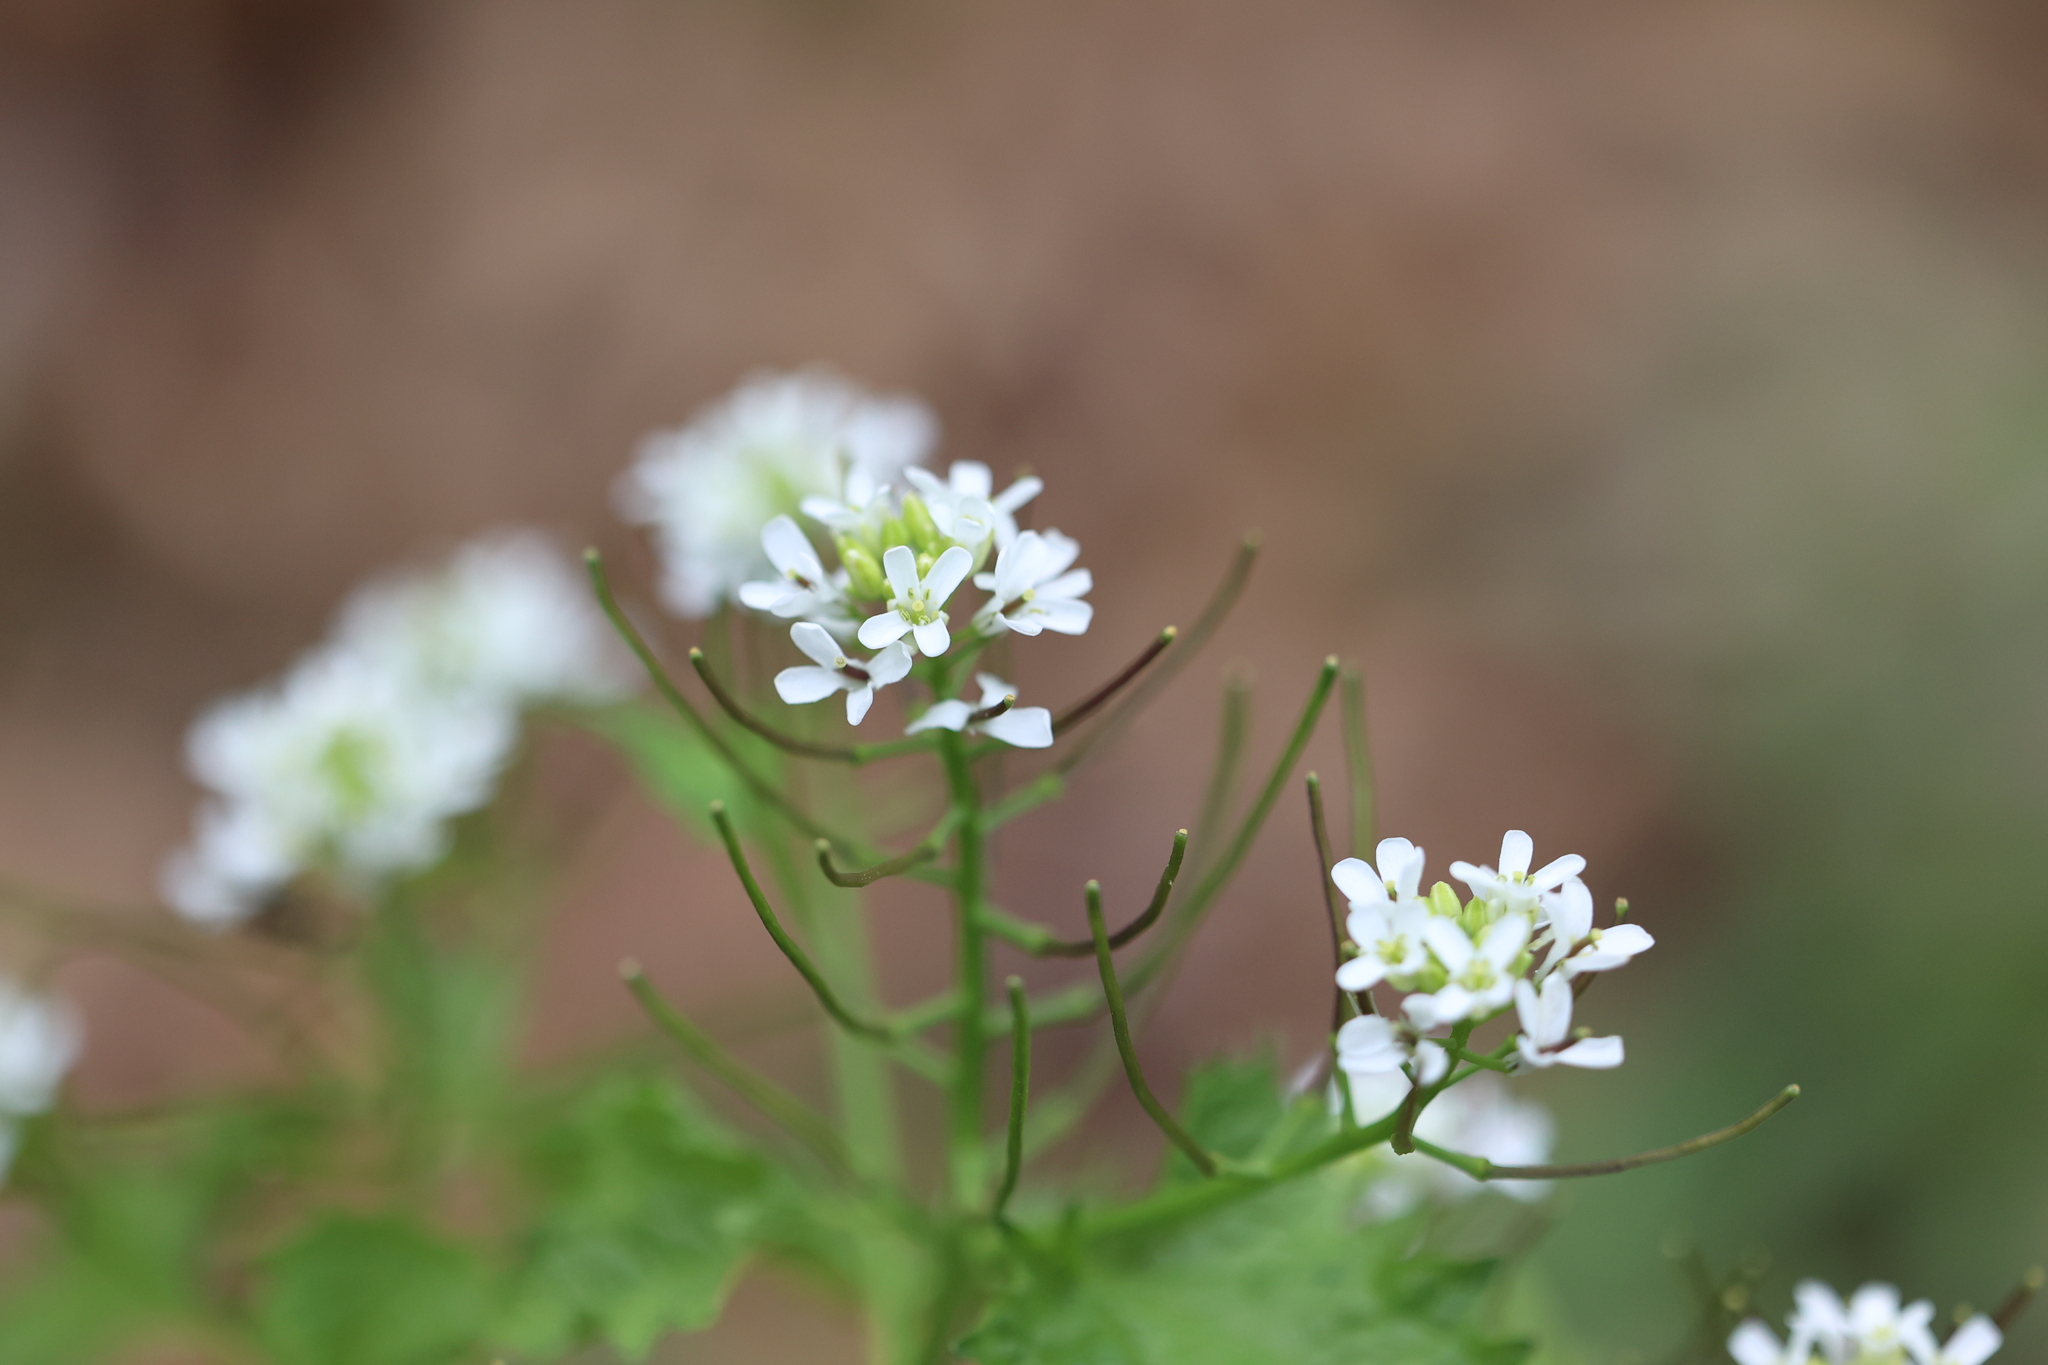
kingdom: Plantae
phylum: Tracheophyta
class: Magnoliopsida
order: Brassicales
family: Brassicaceae
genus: Alliaria
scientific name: Alliaria petiolata
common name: Garlic mustard
